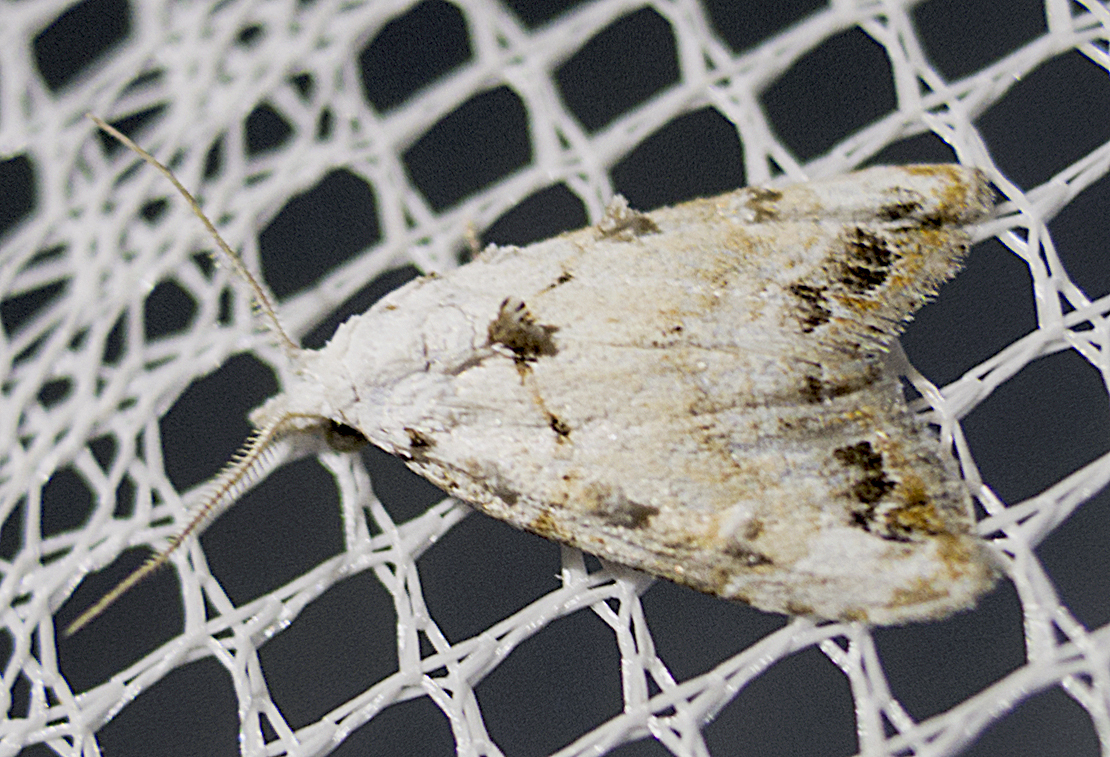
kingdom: Animalia
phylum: Arthropoda
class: Insecta
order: Lepidoptera
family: Nolidae
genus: Nola
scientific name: Nola chlamitulalis
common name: Jersey black arches
